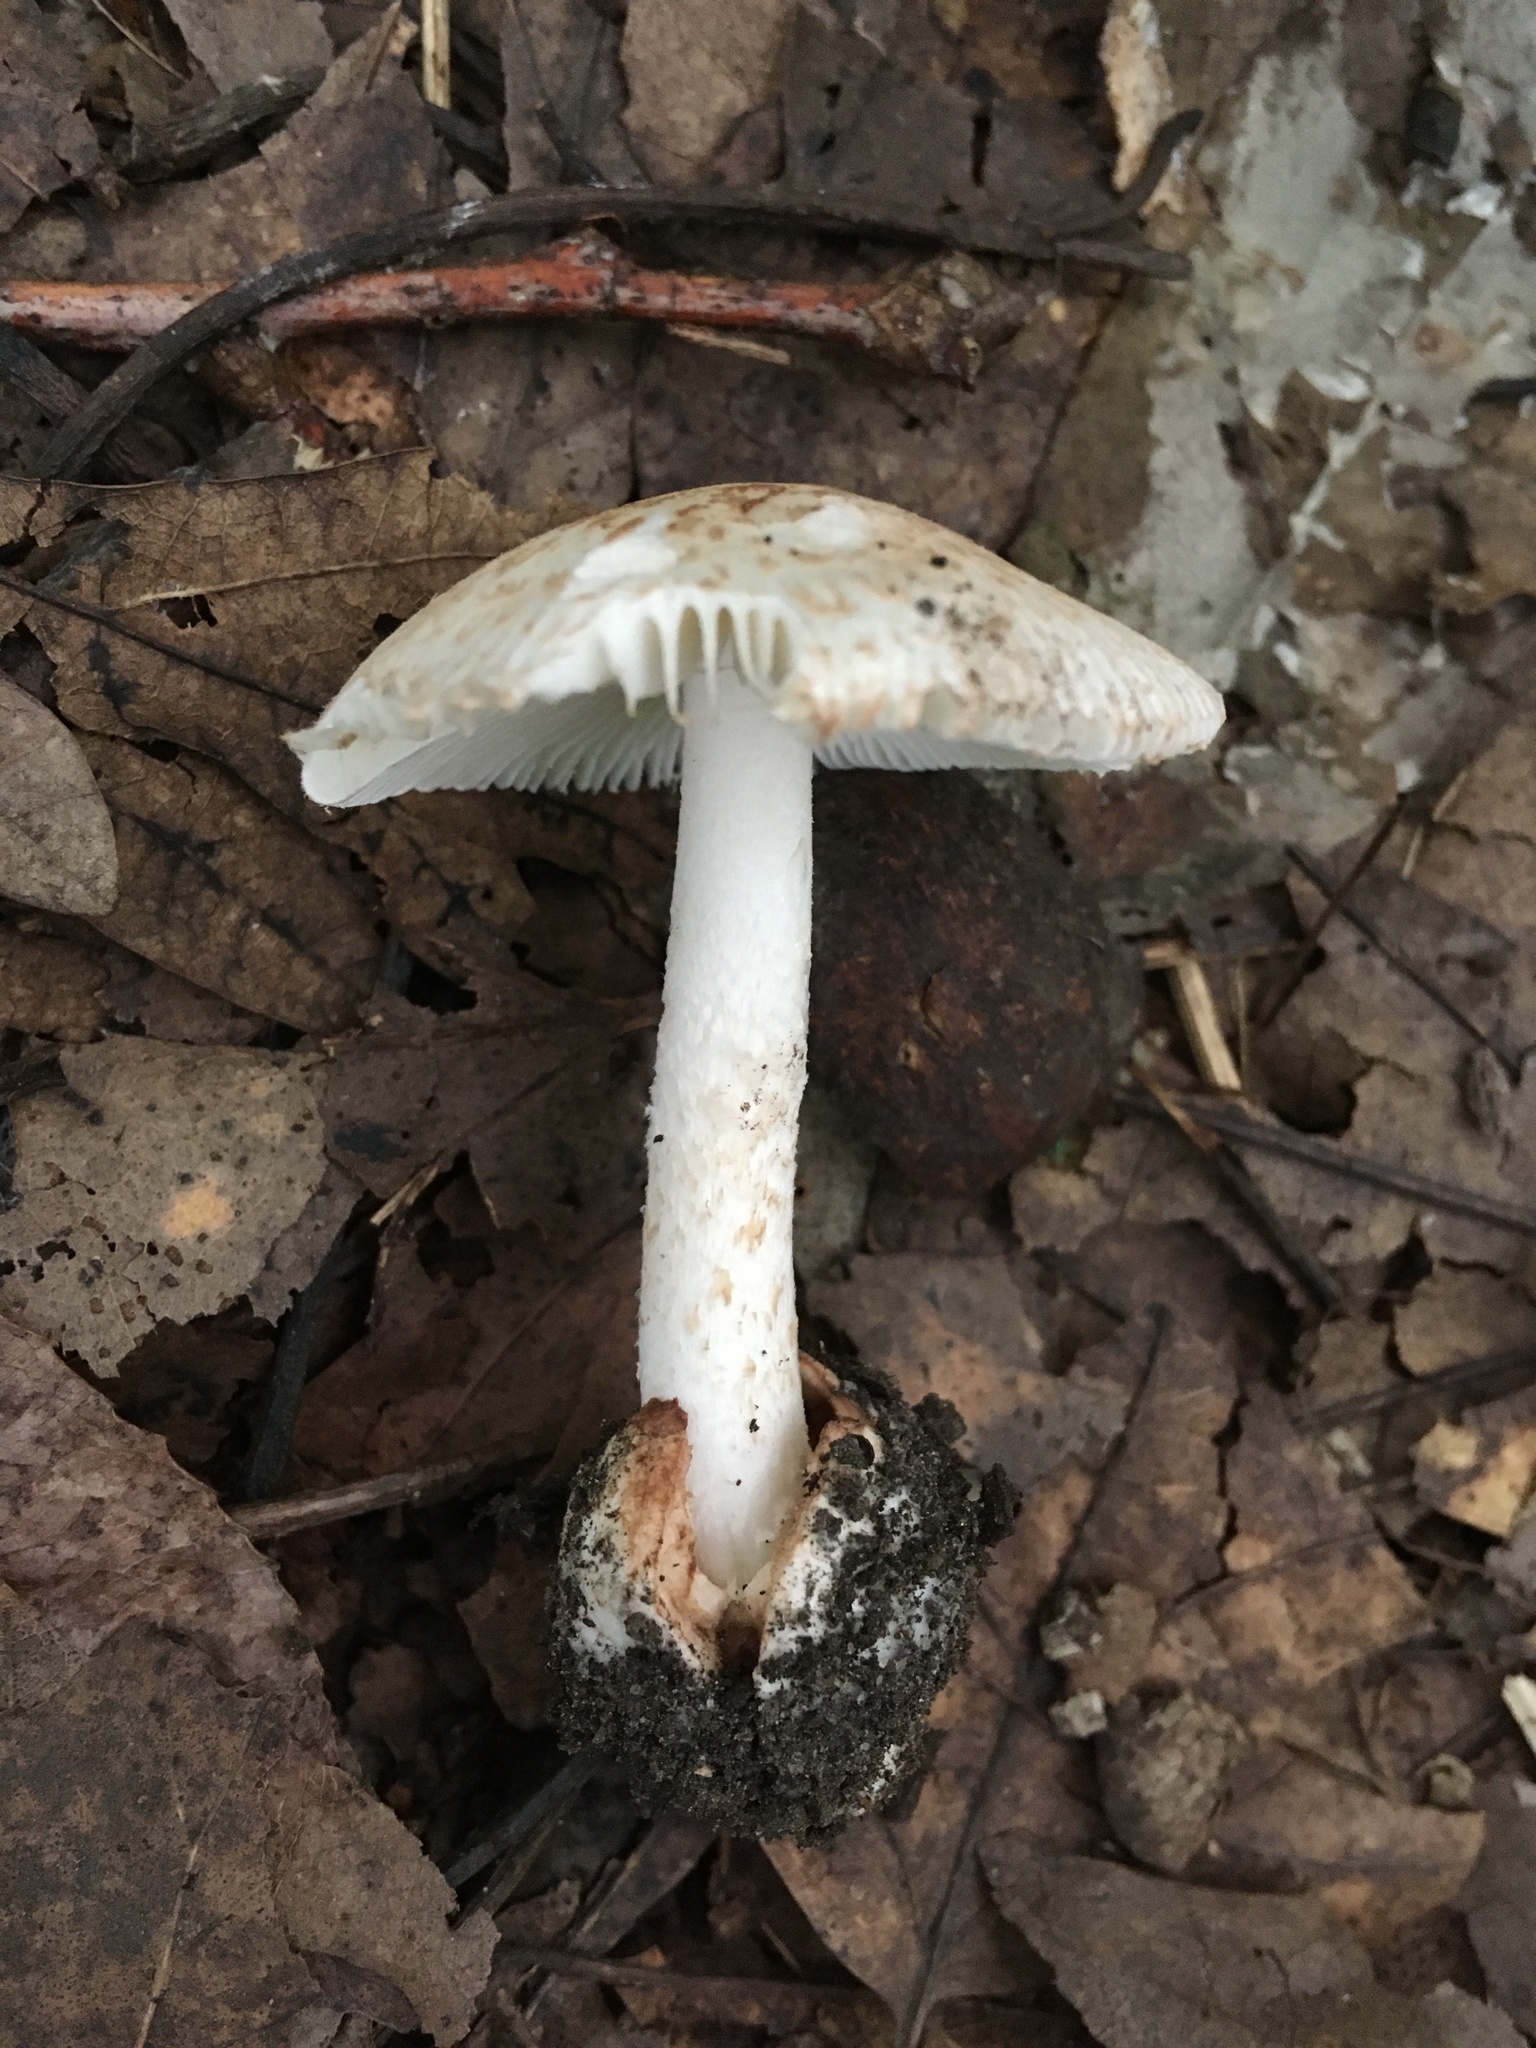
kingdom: Fungi
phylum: Basidiomycota
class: Agaricomycetes
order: Agaricales
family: Amanitaceae
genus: Amanita
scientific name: Amanita peckiana
